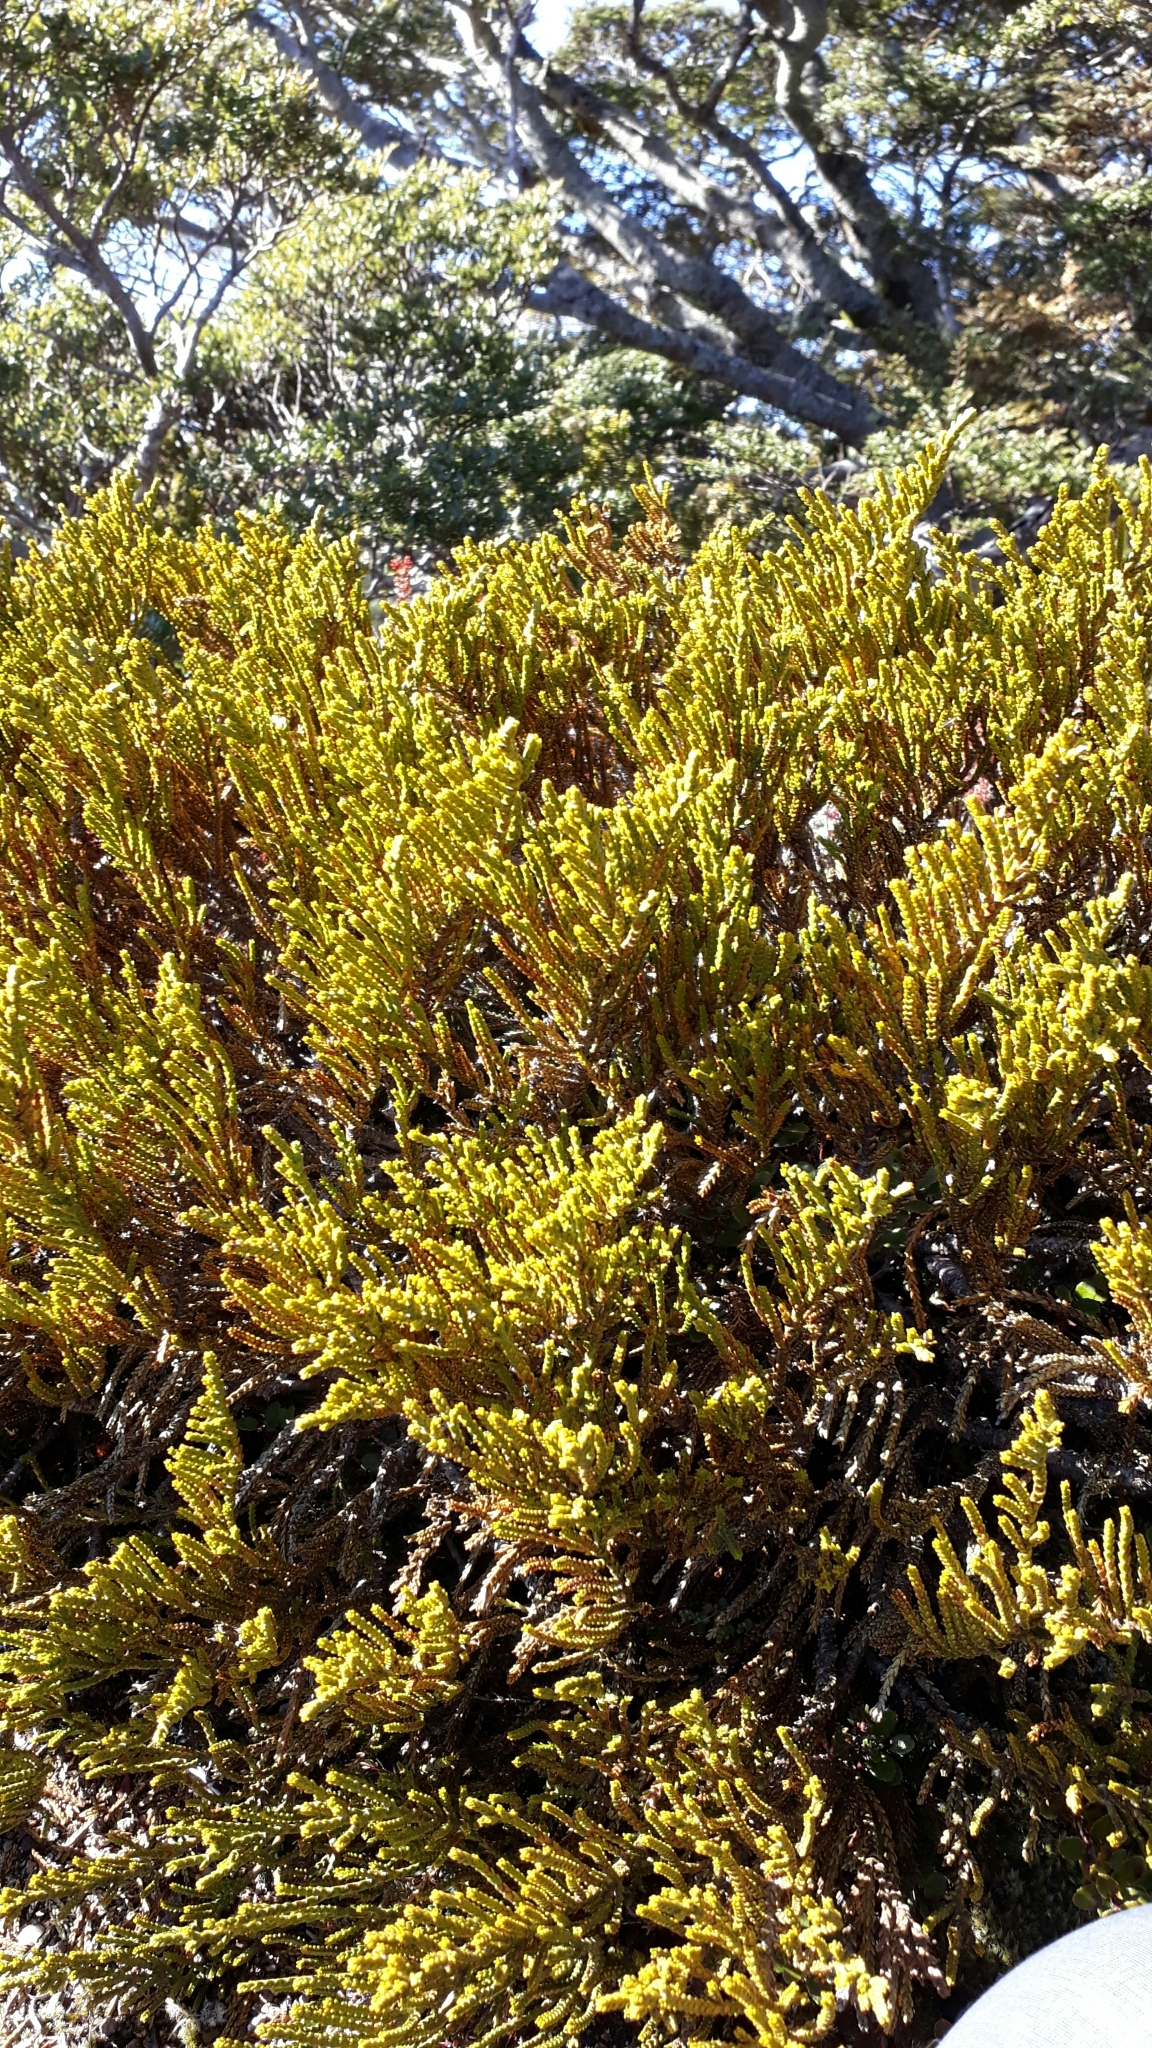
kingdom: Plantae
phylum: Tracheophyta
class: Magnoliopsida
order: Lamiales
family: Plantaginaceae
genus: Veronica
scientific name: Veronica tetragona
